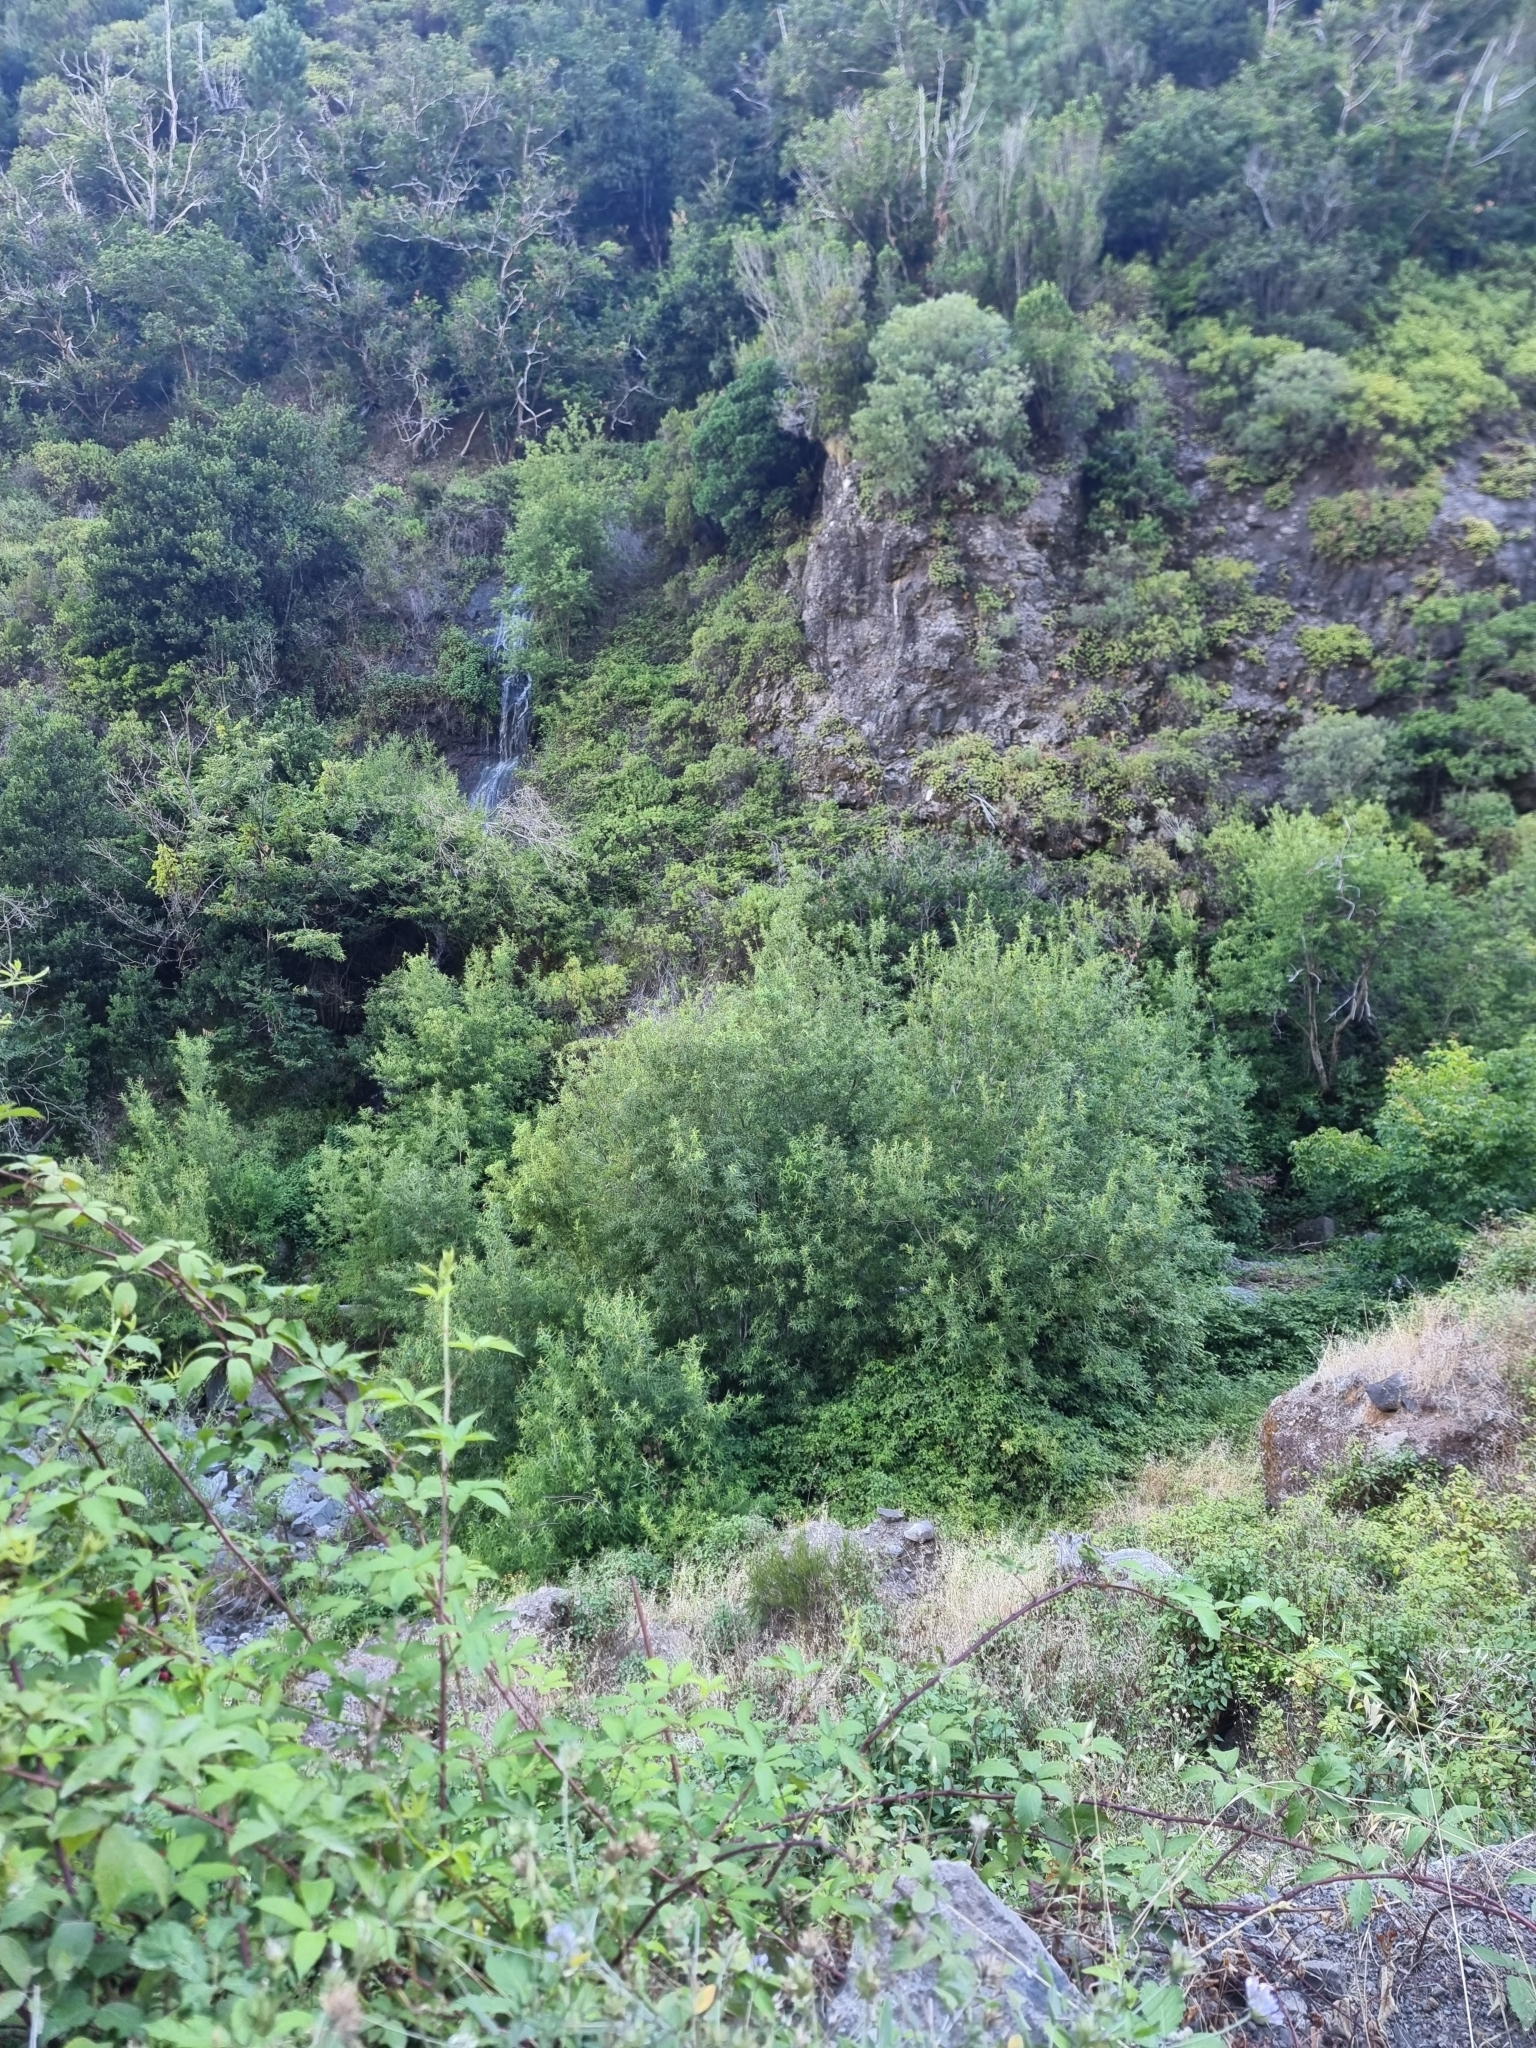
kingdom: Plantae
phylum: Tracheophyta
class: Magnoliopsida
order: Malpighiales
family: Salicaceae
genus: Salix
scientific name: Salix canariensis
